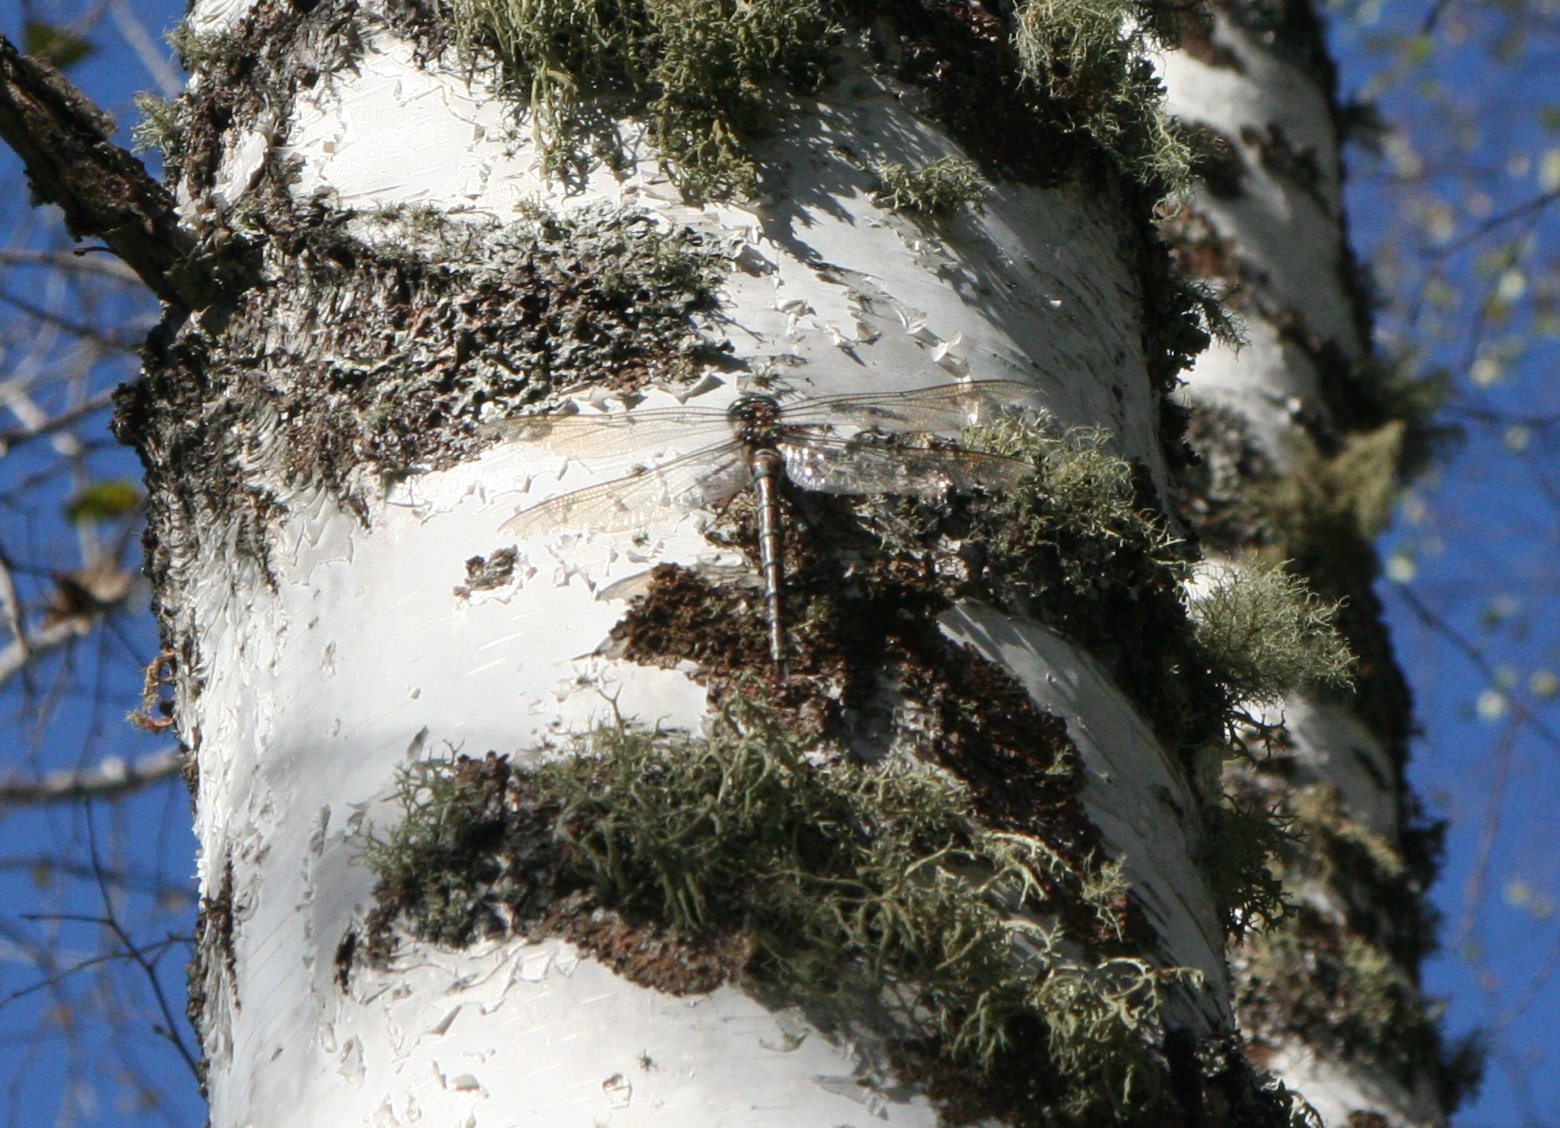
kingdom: Animalia
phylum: Arthropoda
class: Insecta
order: Odonata
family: Aeshnidae
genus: Aeshna
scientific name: Aeshna crenata
